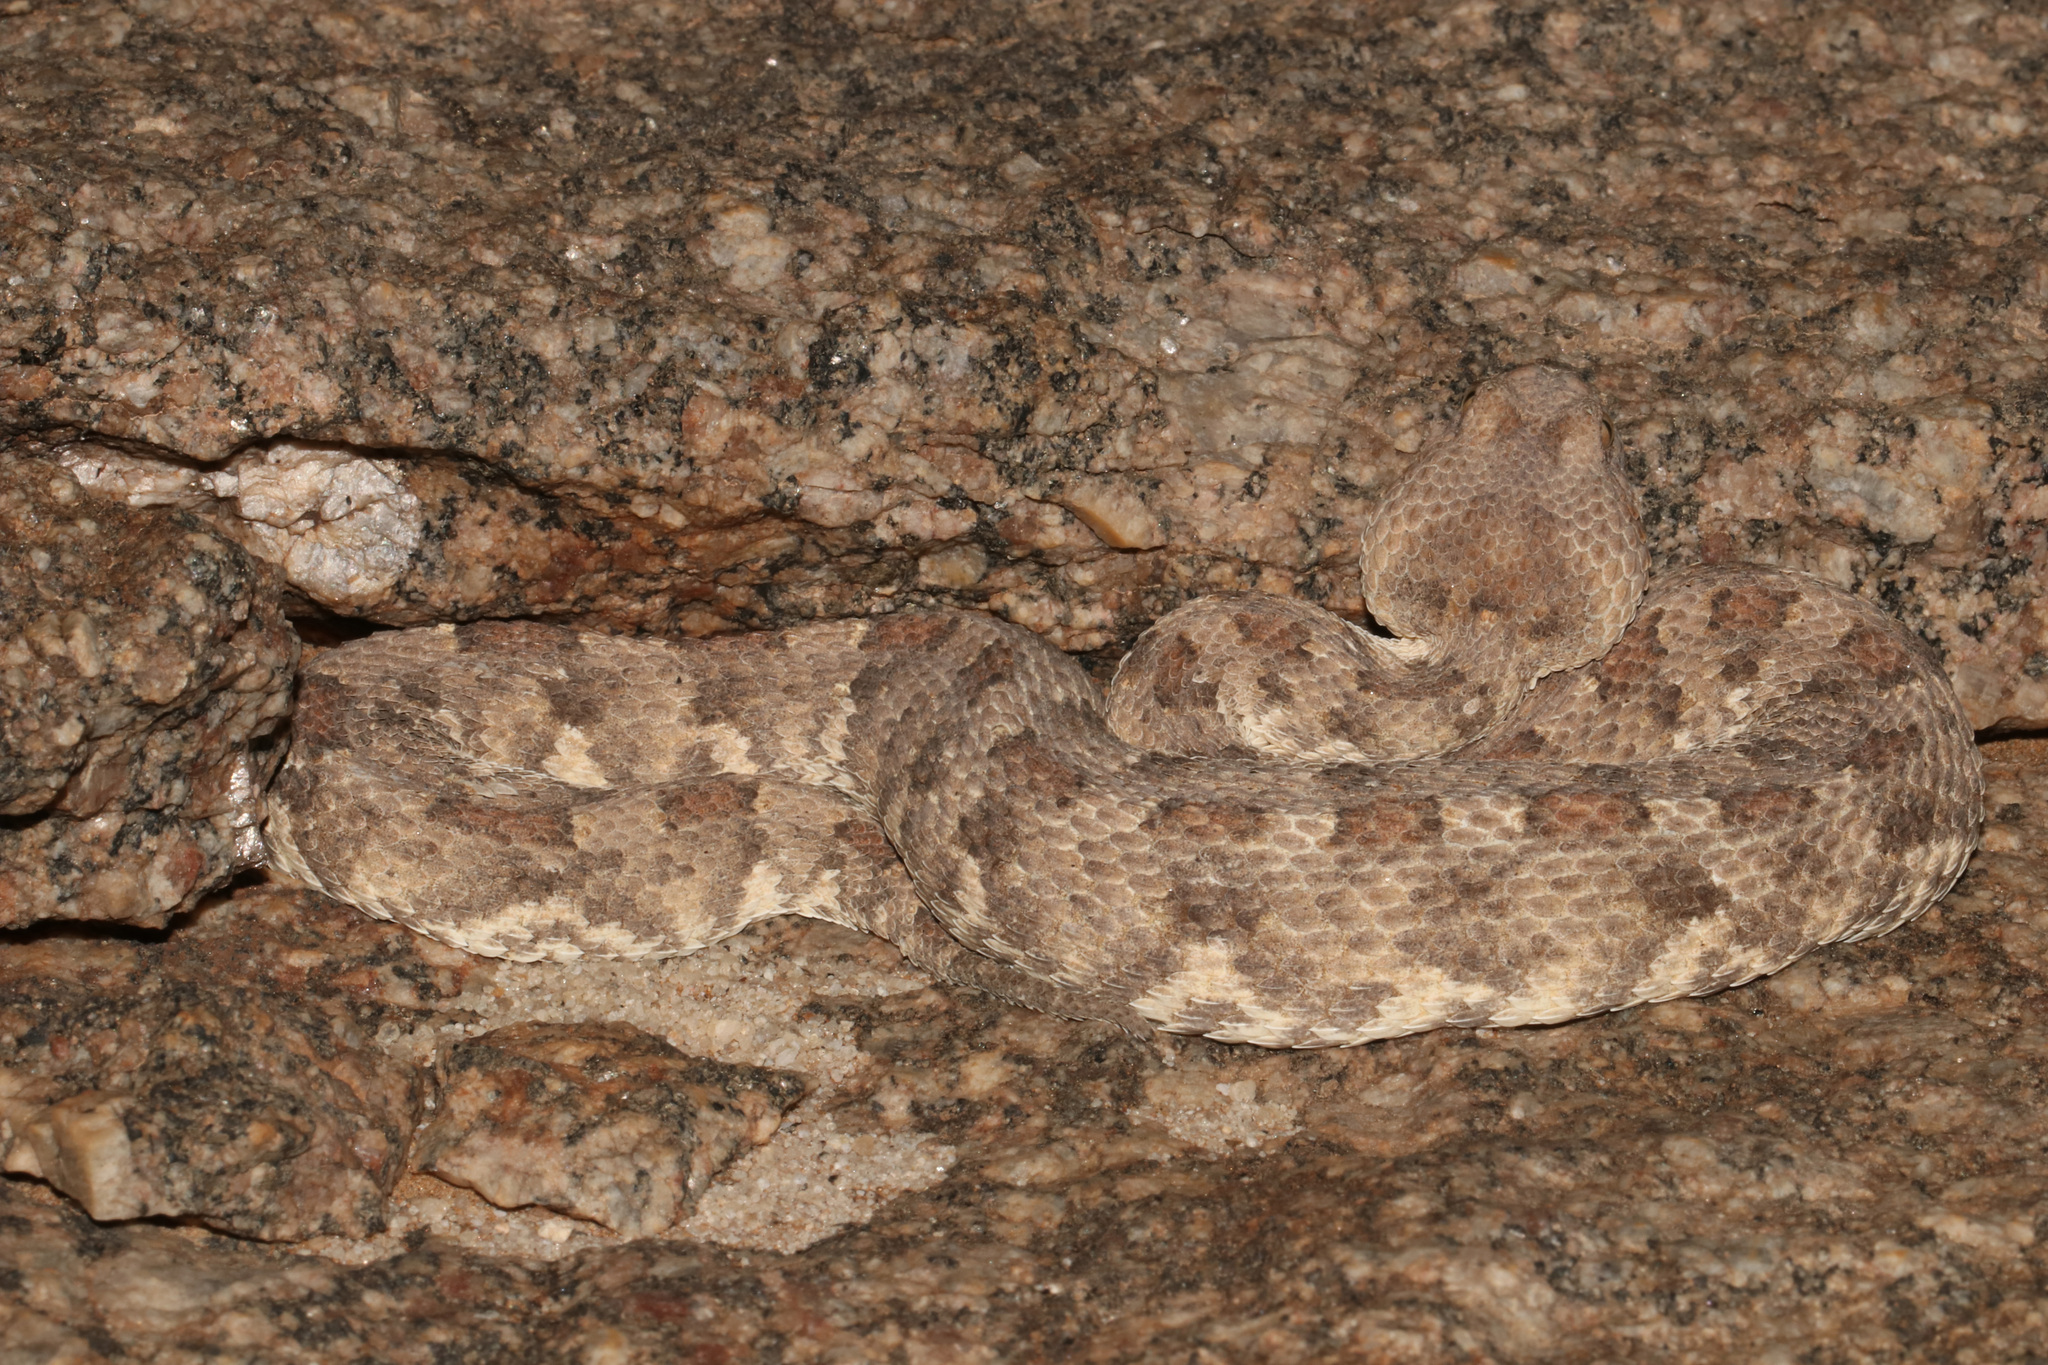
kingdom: Animalia
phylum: Chordata
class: Squamata
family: Viperidae
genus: Bitis
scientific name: Bitis caudalis
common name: Horned adder
